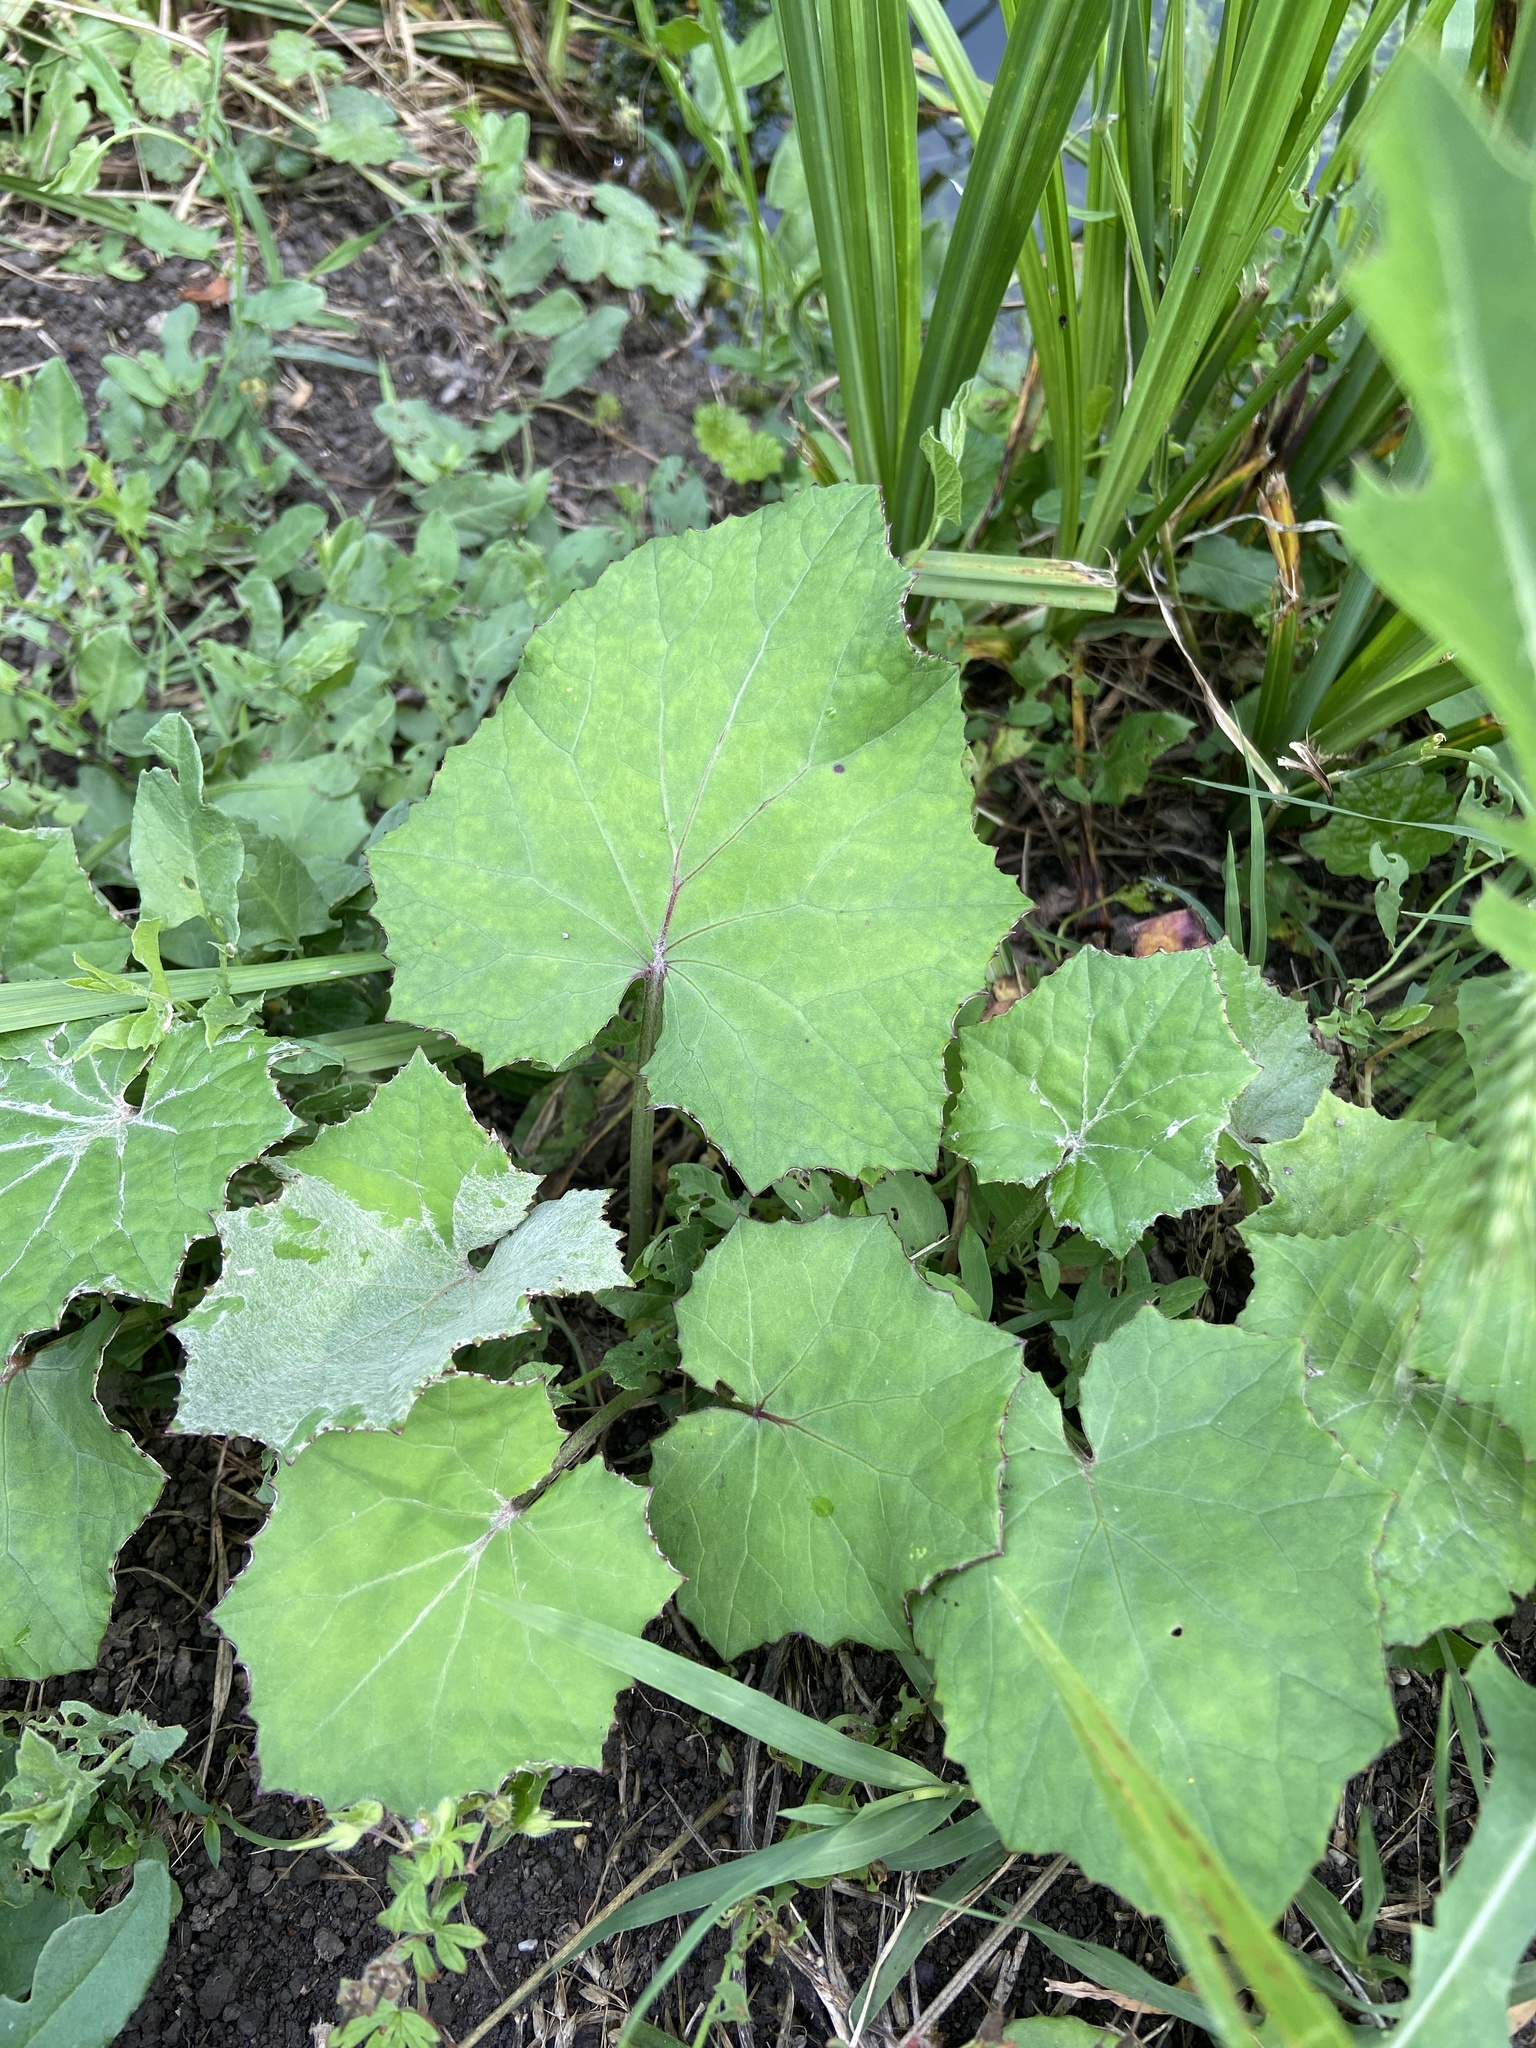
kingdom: Plantae
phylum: Tracheophyta
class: Magnoliopsida
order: Asterales
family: Asteraceae
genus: Tussilago
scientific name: Tussilago farfara
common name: Coltsfoot
